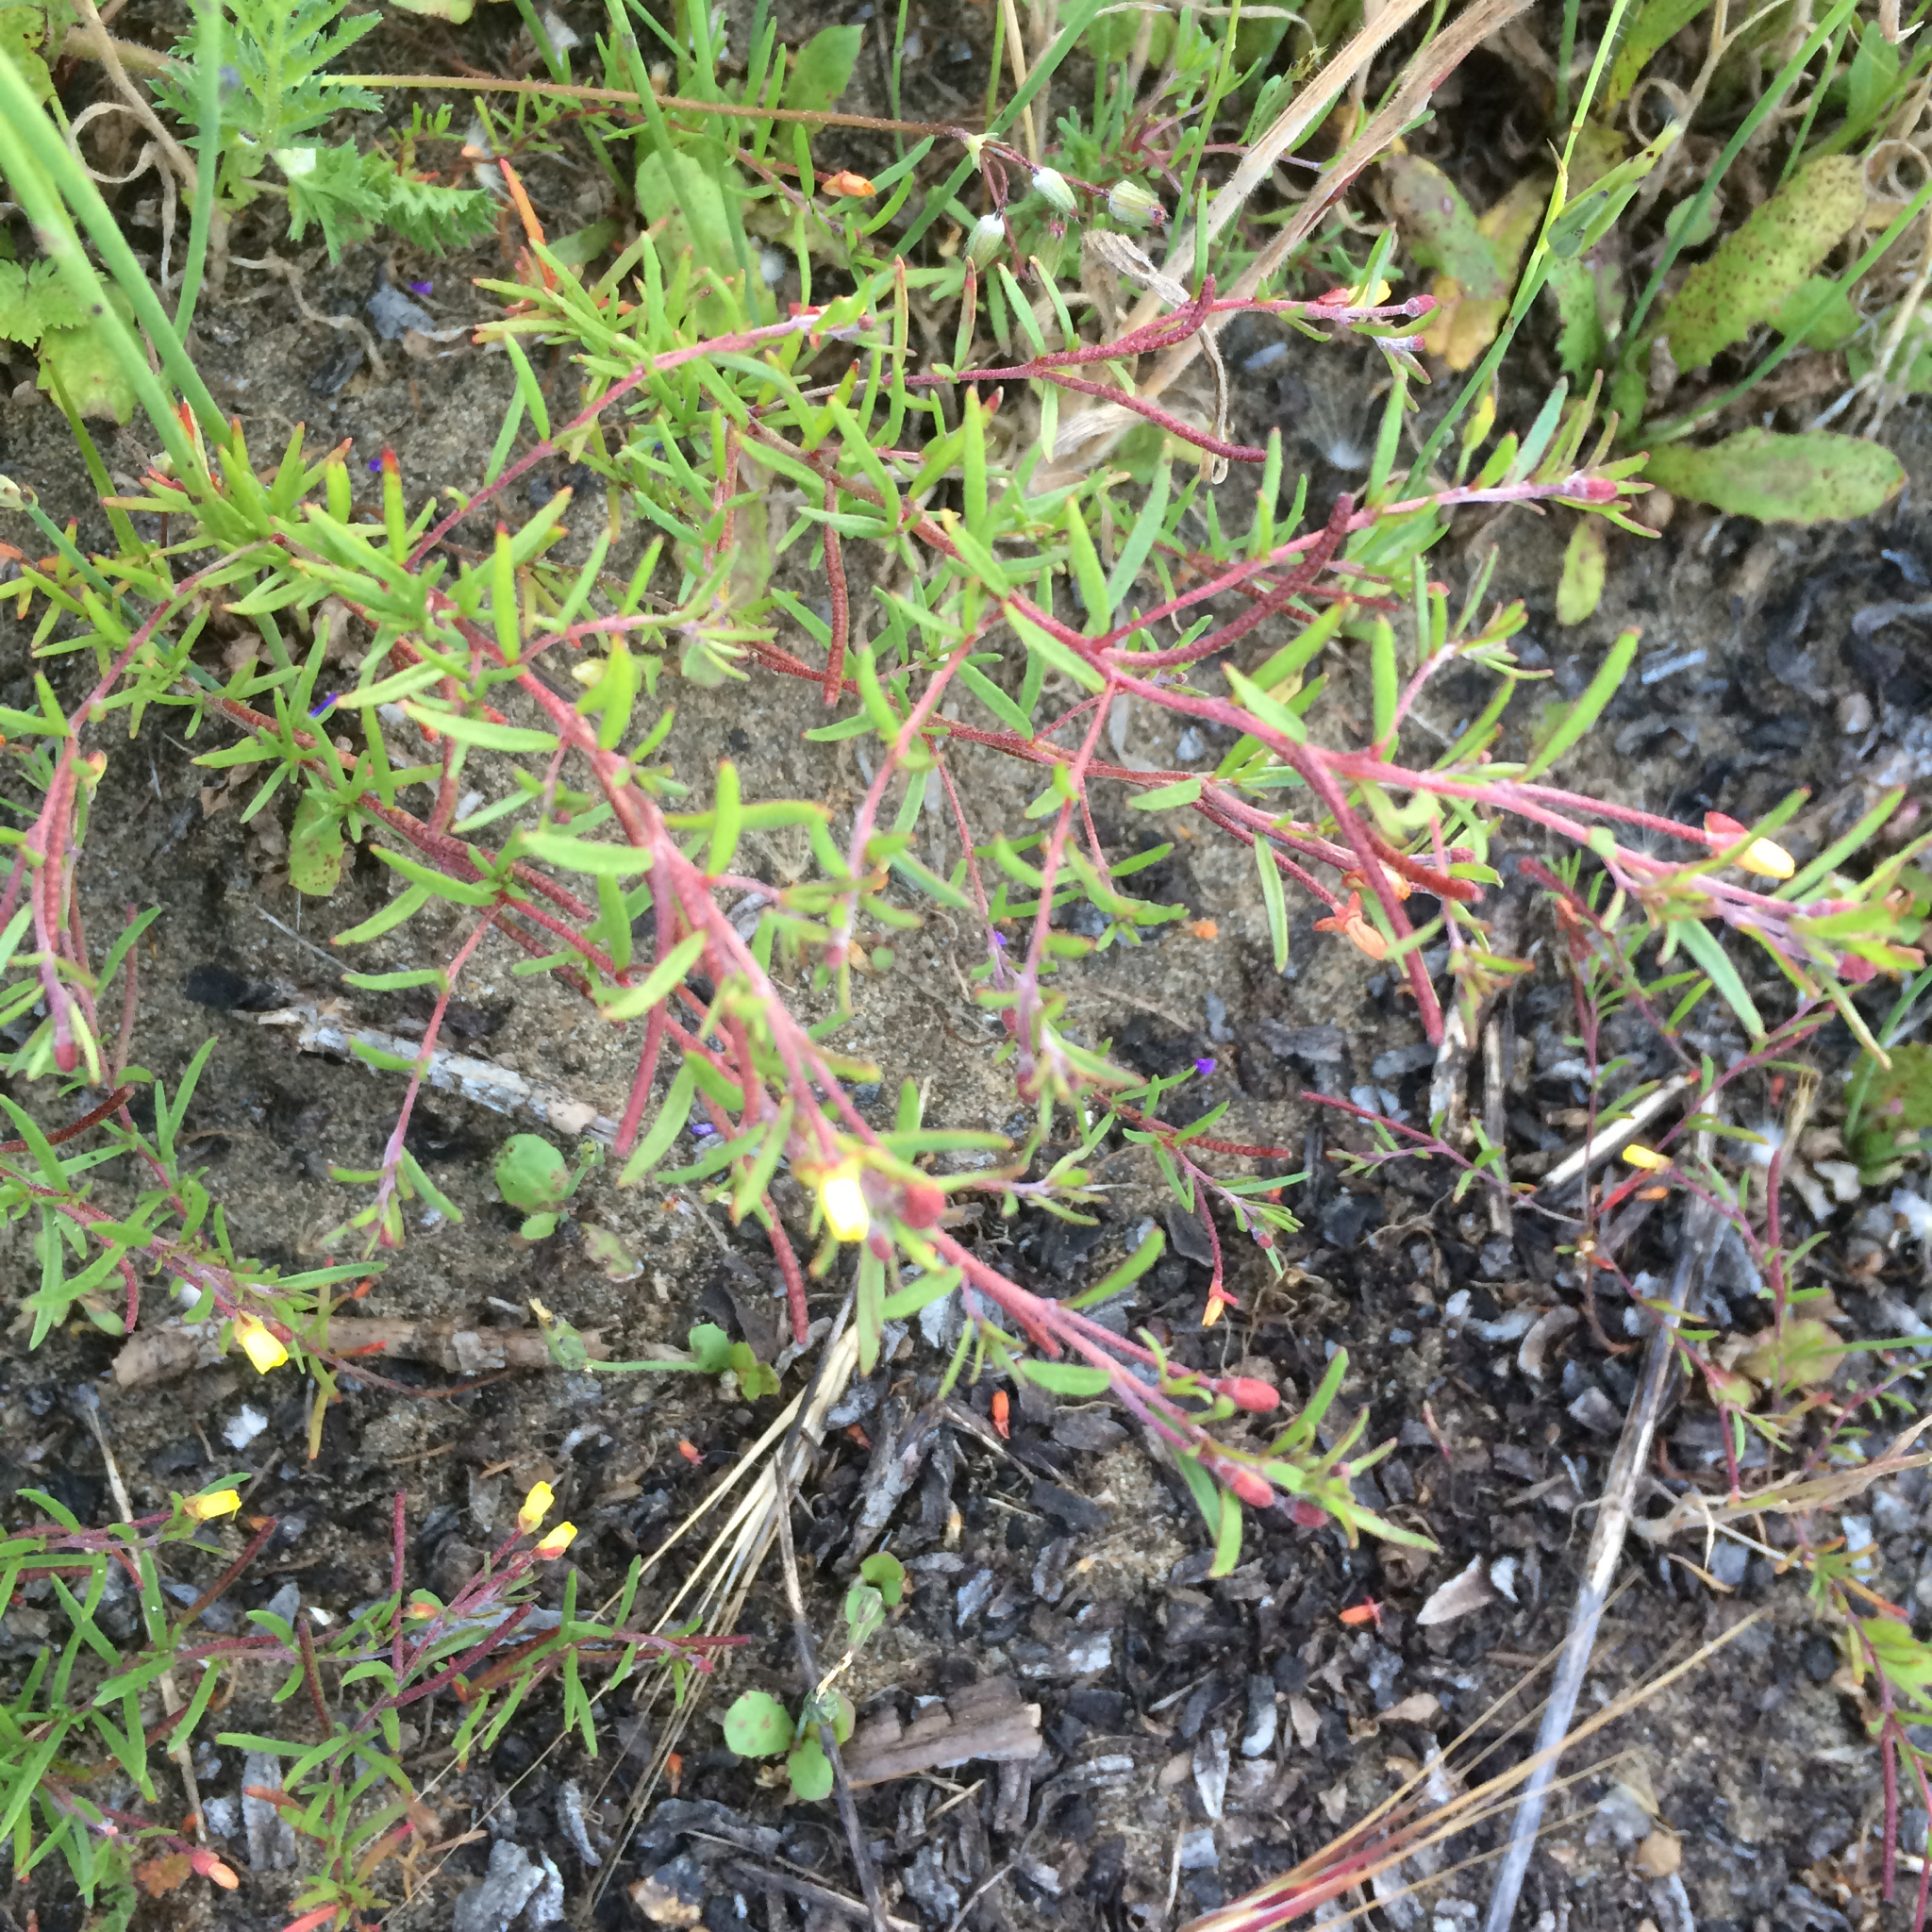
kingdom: Plantae
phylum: Tracheophyta
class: Magnoliopsida
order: Myrtales
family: Onagraceae
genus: Camissonia
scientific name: Camissonia strigulosa
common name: Contorted-primrose
